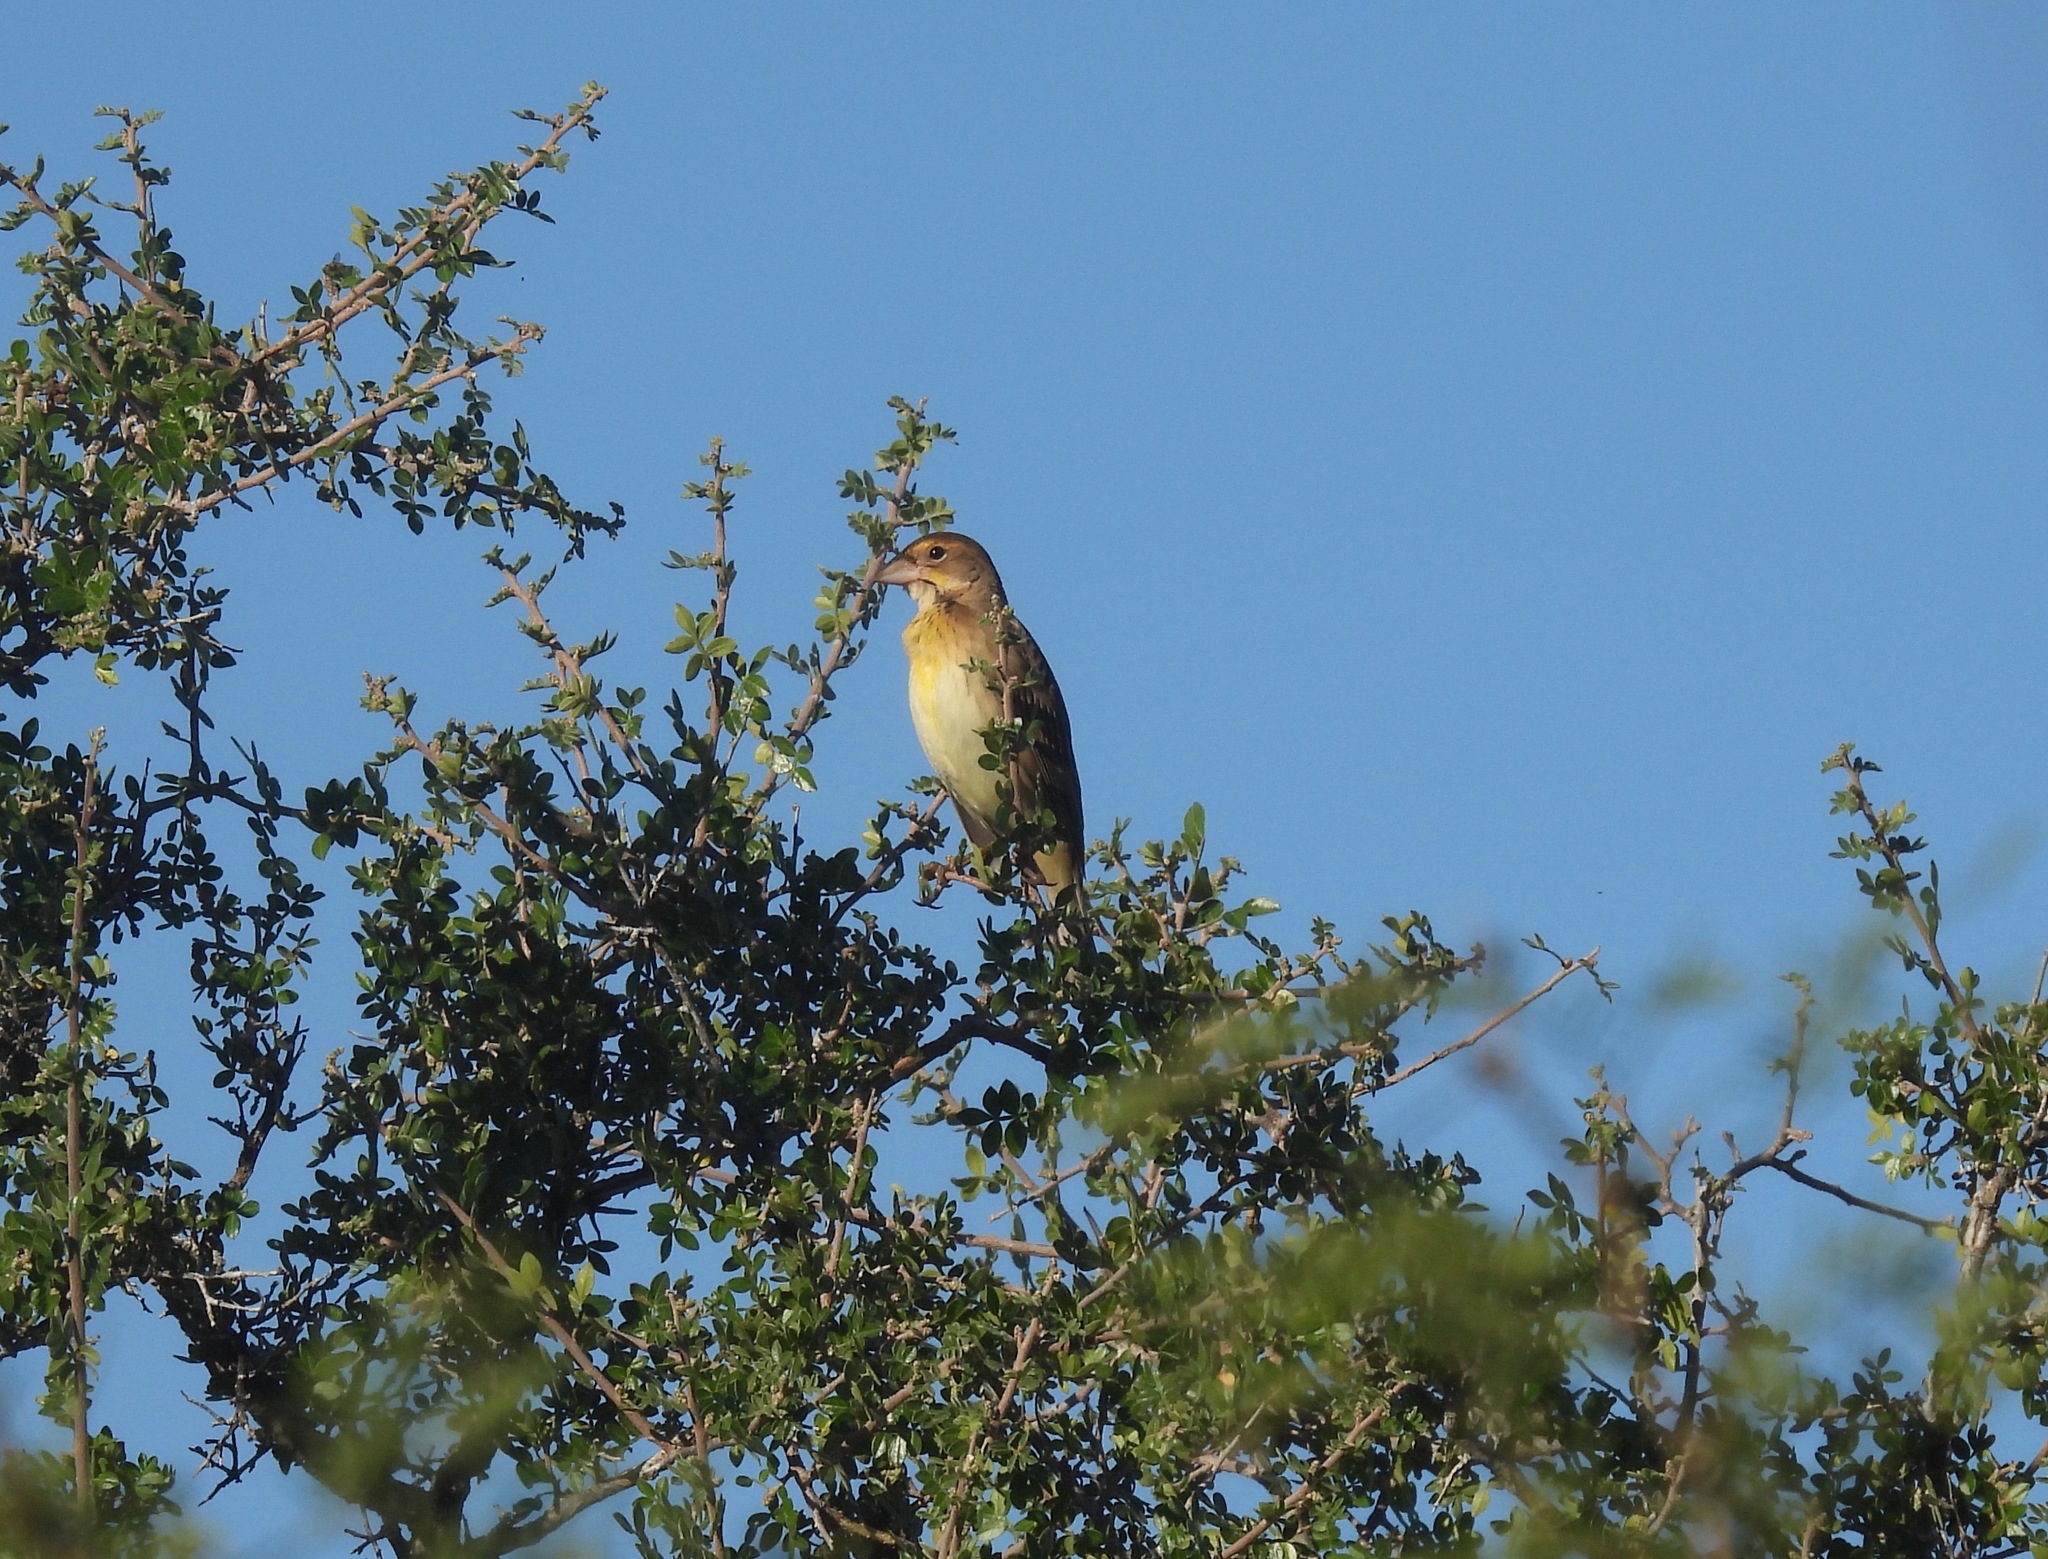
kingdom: Animalia
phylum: Chordata
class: Aves
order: Passeriformes
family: Cardinalidae
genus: Spiza
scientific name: Spiza americana
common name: Dickcissel
